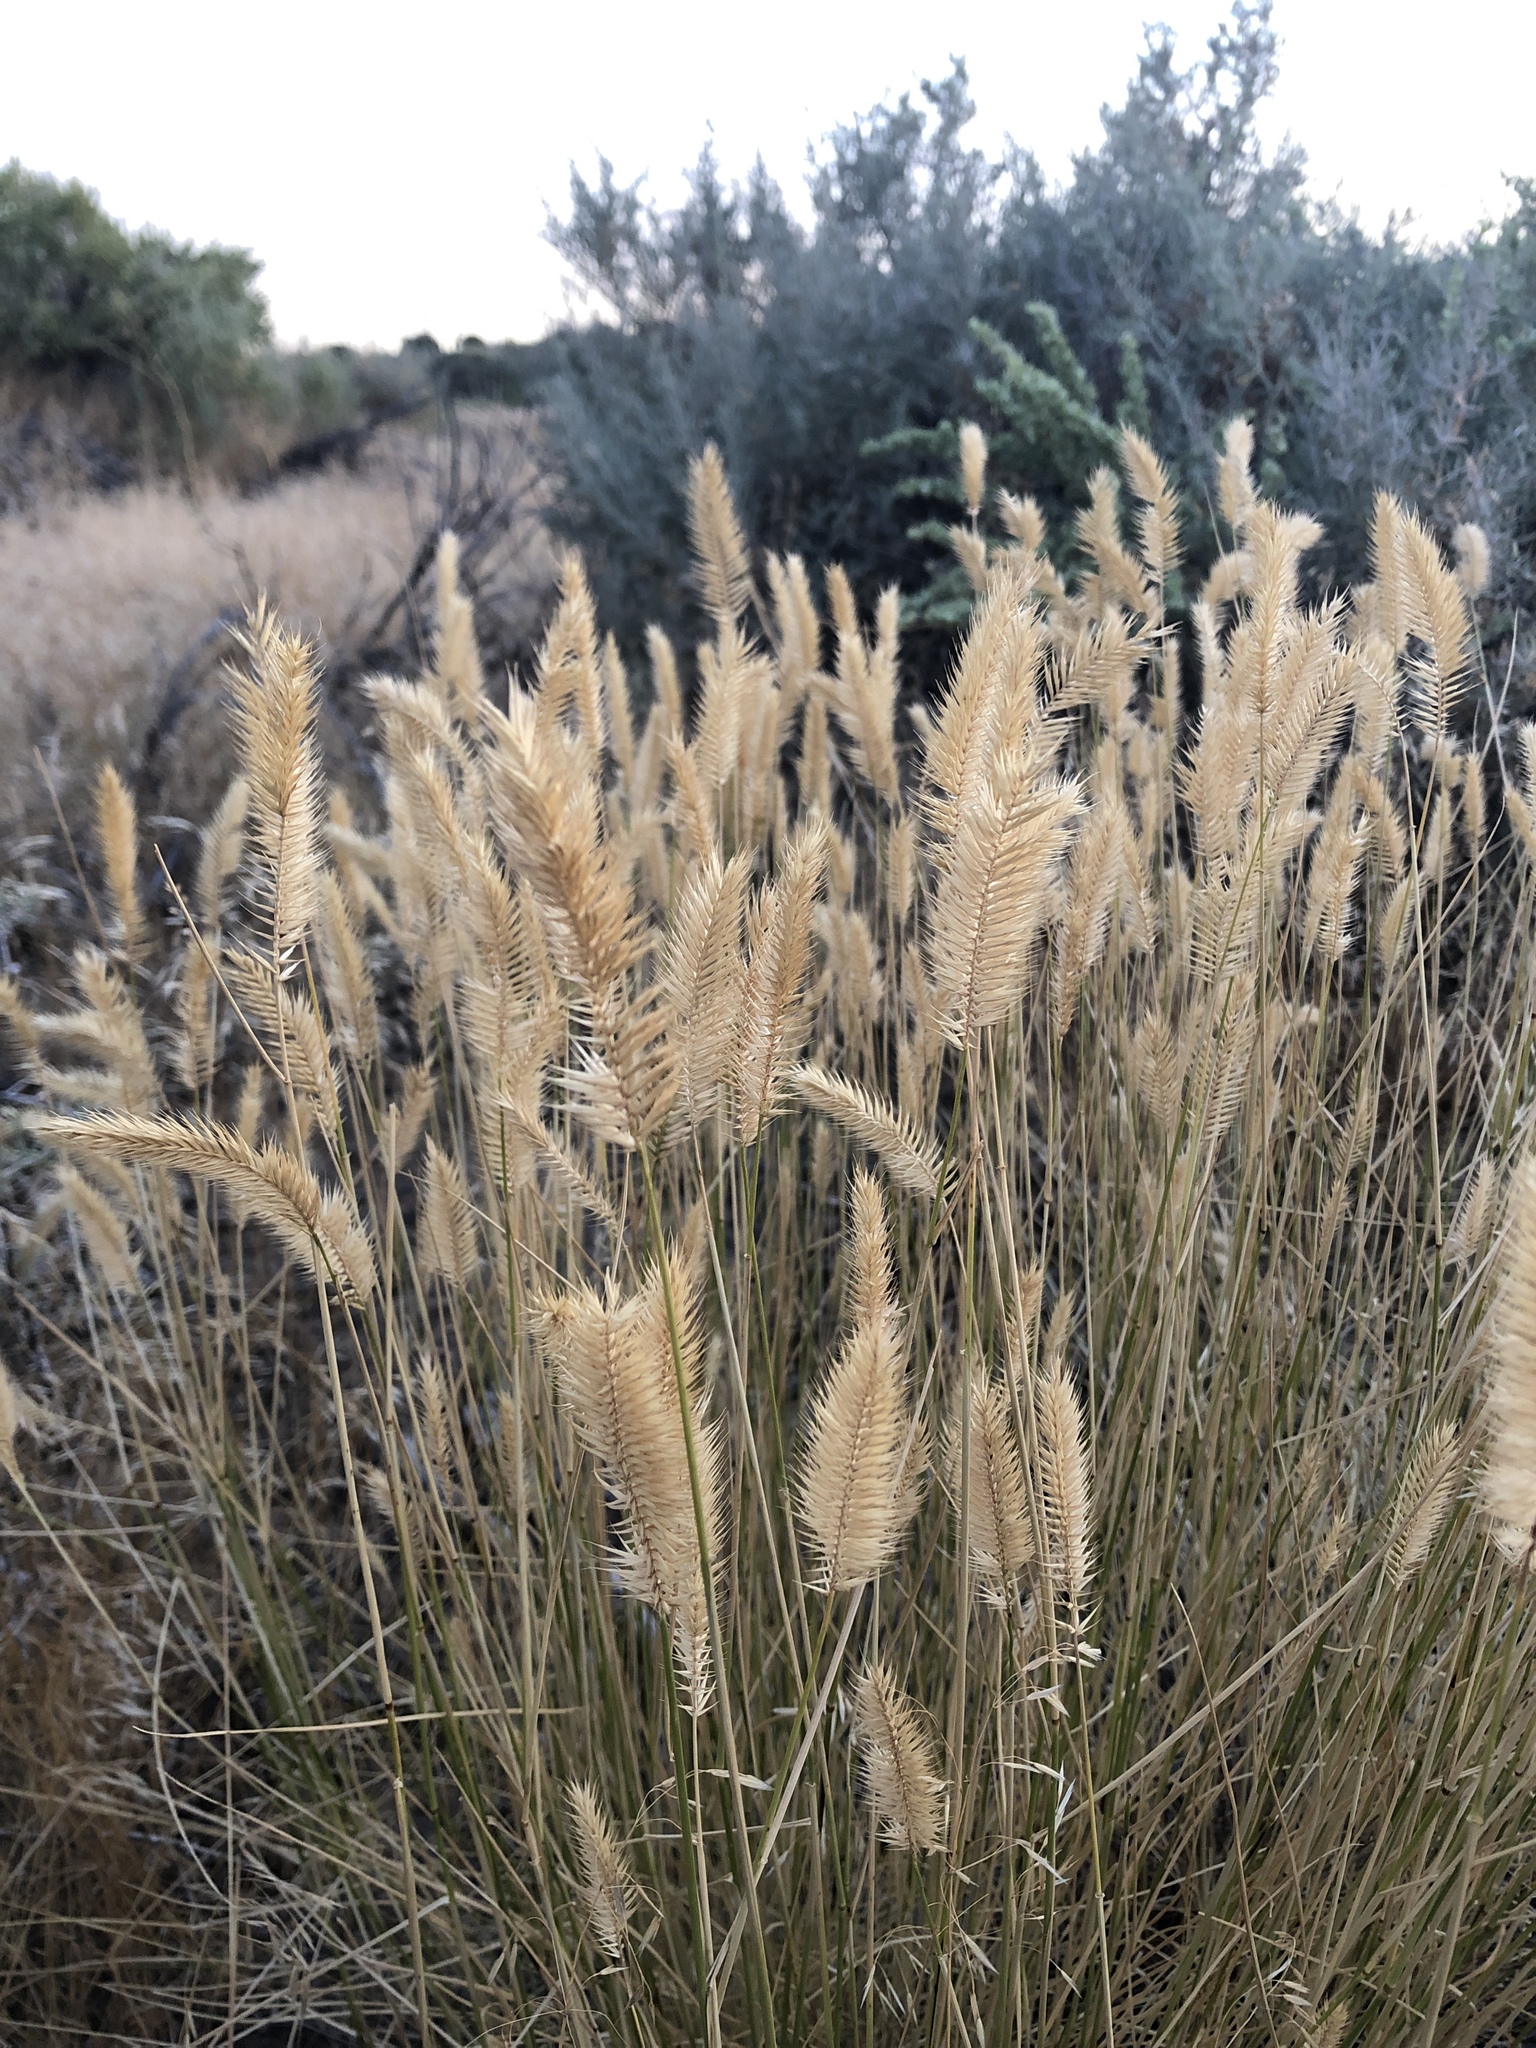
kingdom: Plantae
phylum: Tracheophyta
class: Liliopsida
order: Poales
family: Poaceae
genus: Agropyron
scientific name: Agropyron cristatum
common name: Crested wheatgrass
